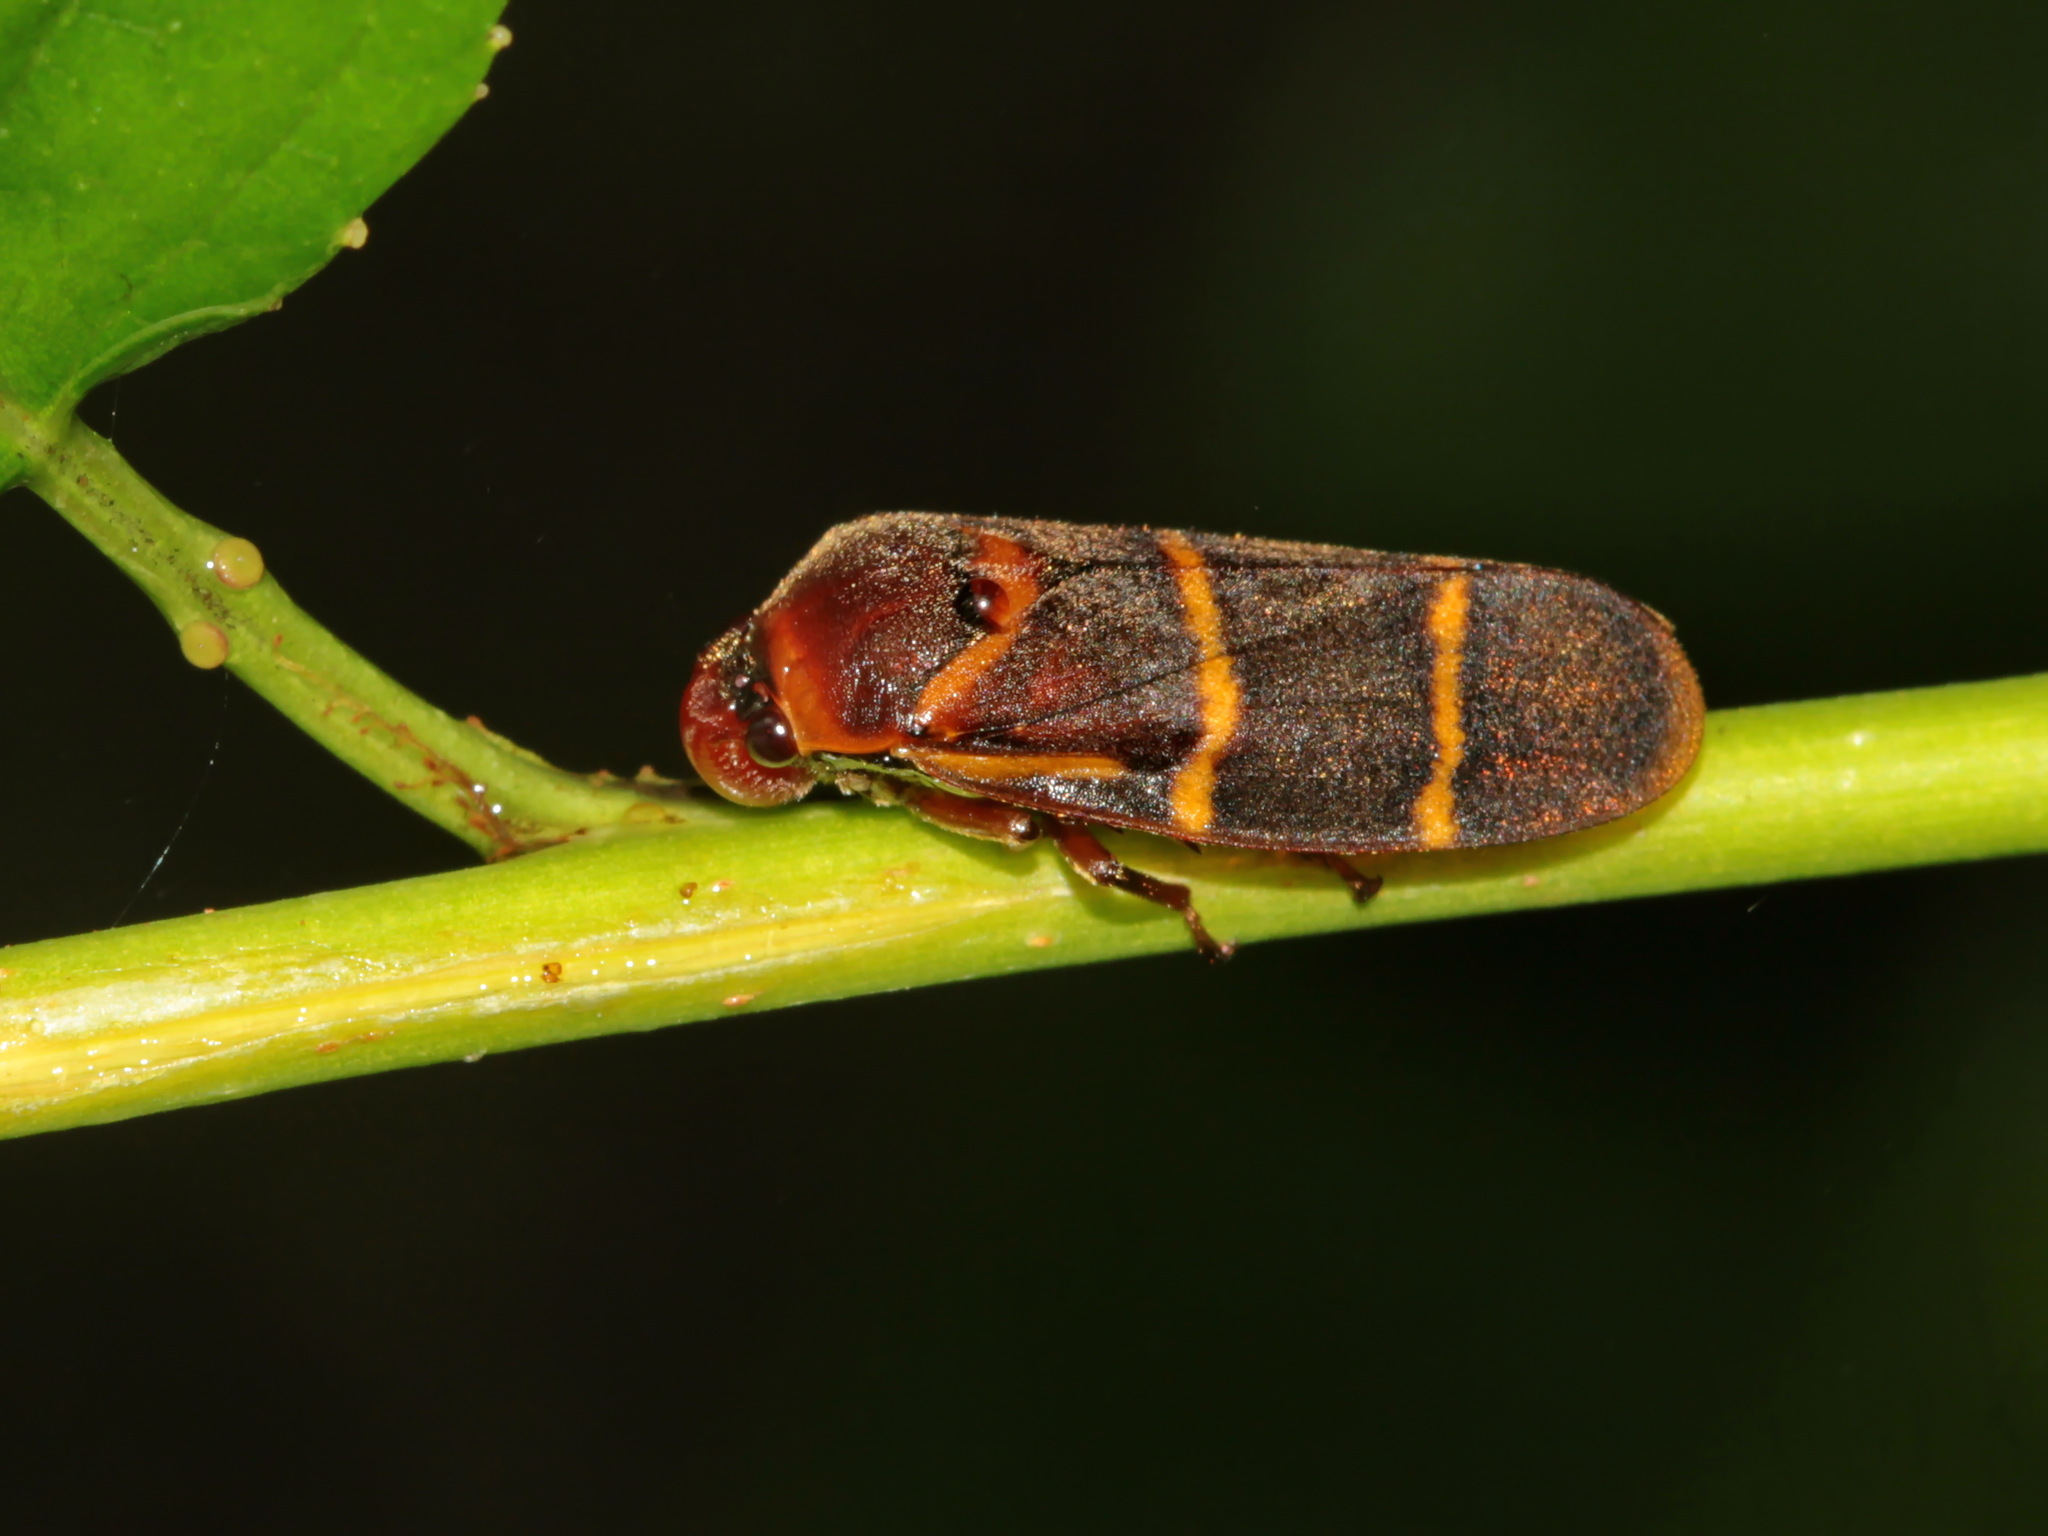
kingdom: Animalia
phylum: Arthropoda
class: Insecta
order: Hemiptera
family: Cercopidae
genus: Phymatostetha
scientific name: Phymatostetha stalii
